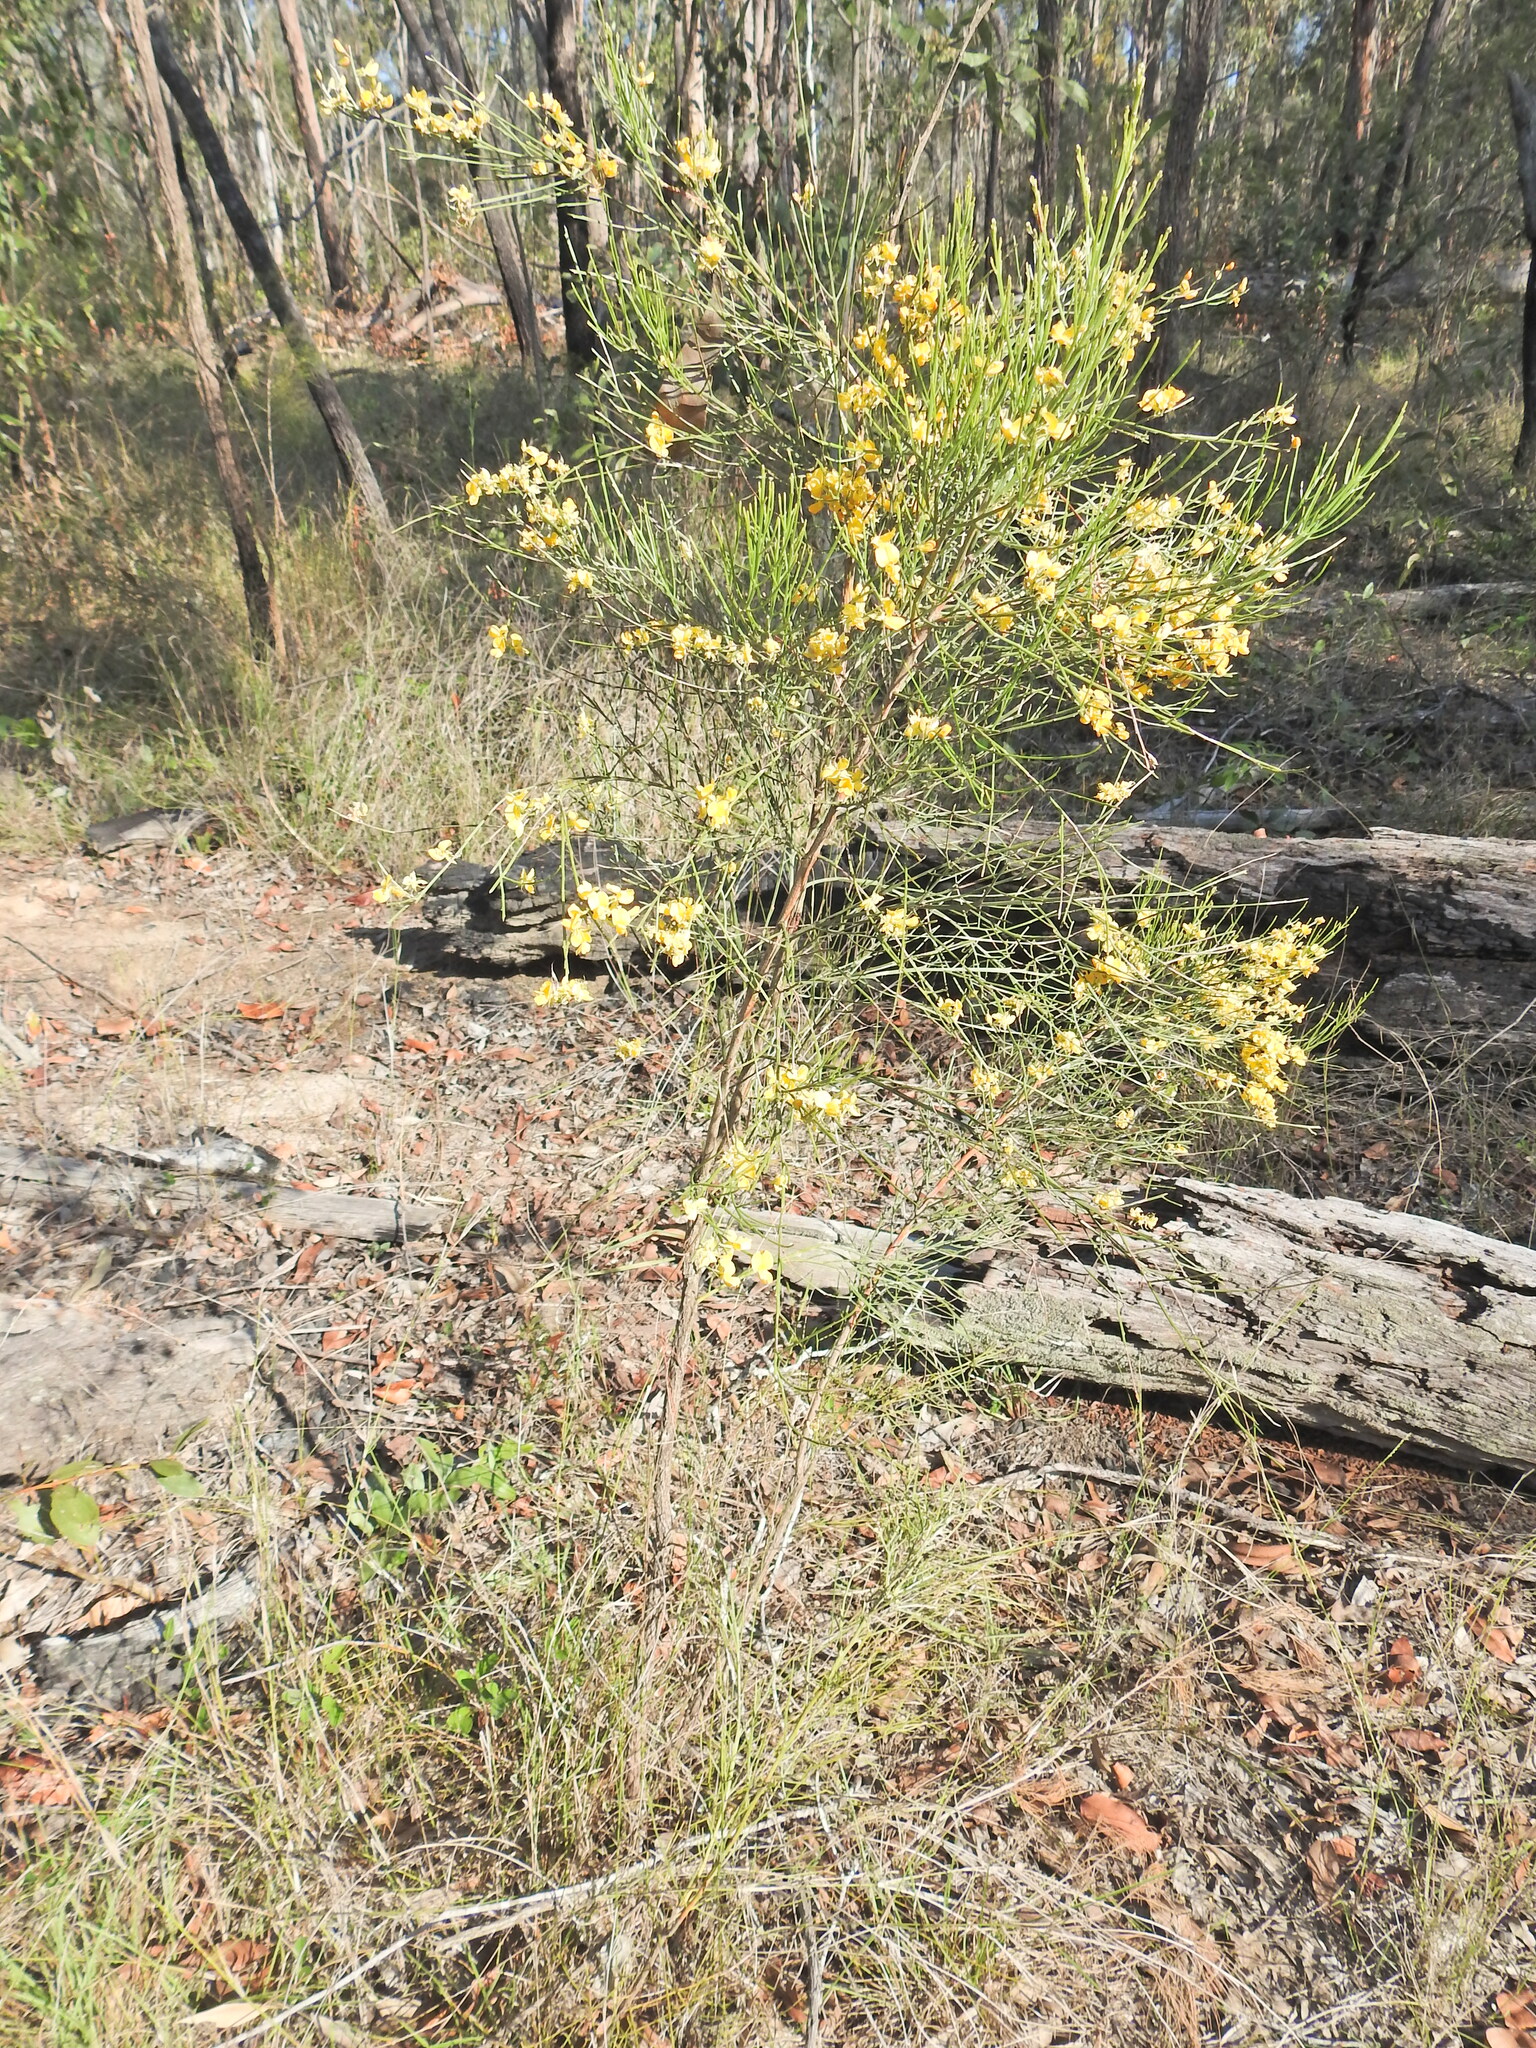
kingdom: Plantae
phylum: Tracheophyta
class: Magnoliopsida
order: Fabales
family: Fabaceae
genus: Jacksonia
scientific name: Jacksonia scoparia
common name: Dogwood
